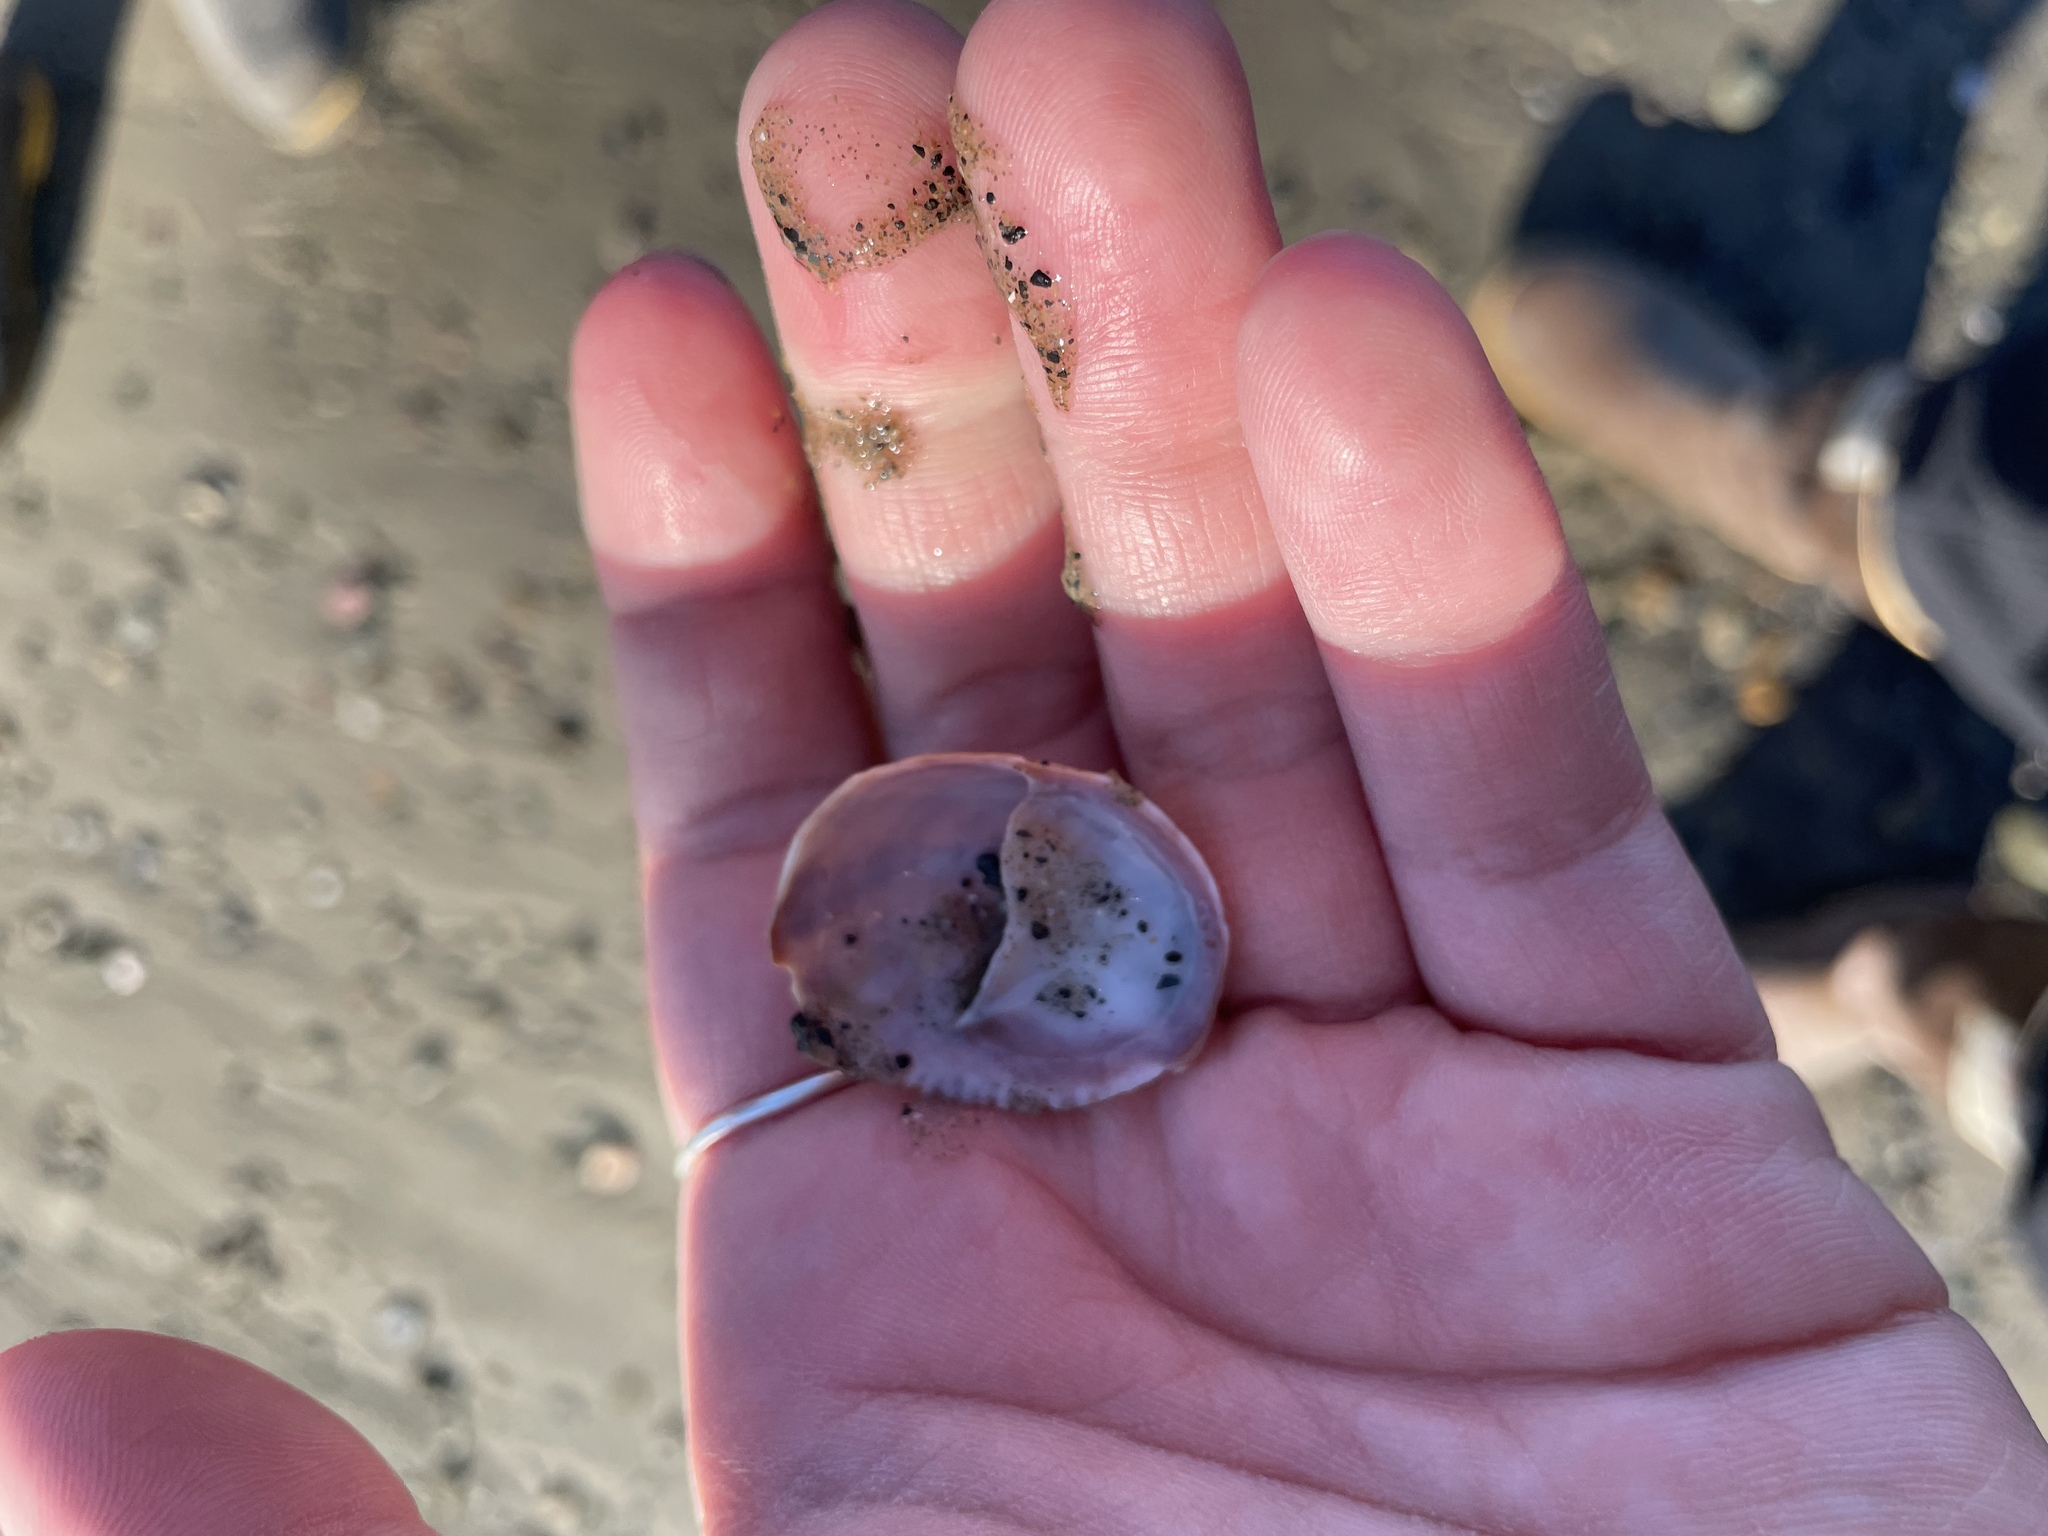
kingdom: Animalia
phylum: Mollusca
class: Gastropoda
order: Littorinimorpha
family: Calyptraeidae
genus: Crepidula
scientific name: Crepidula fornicata
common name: Slipper limpet
